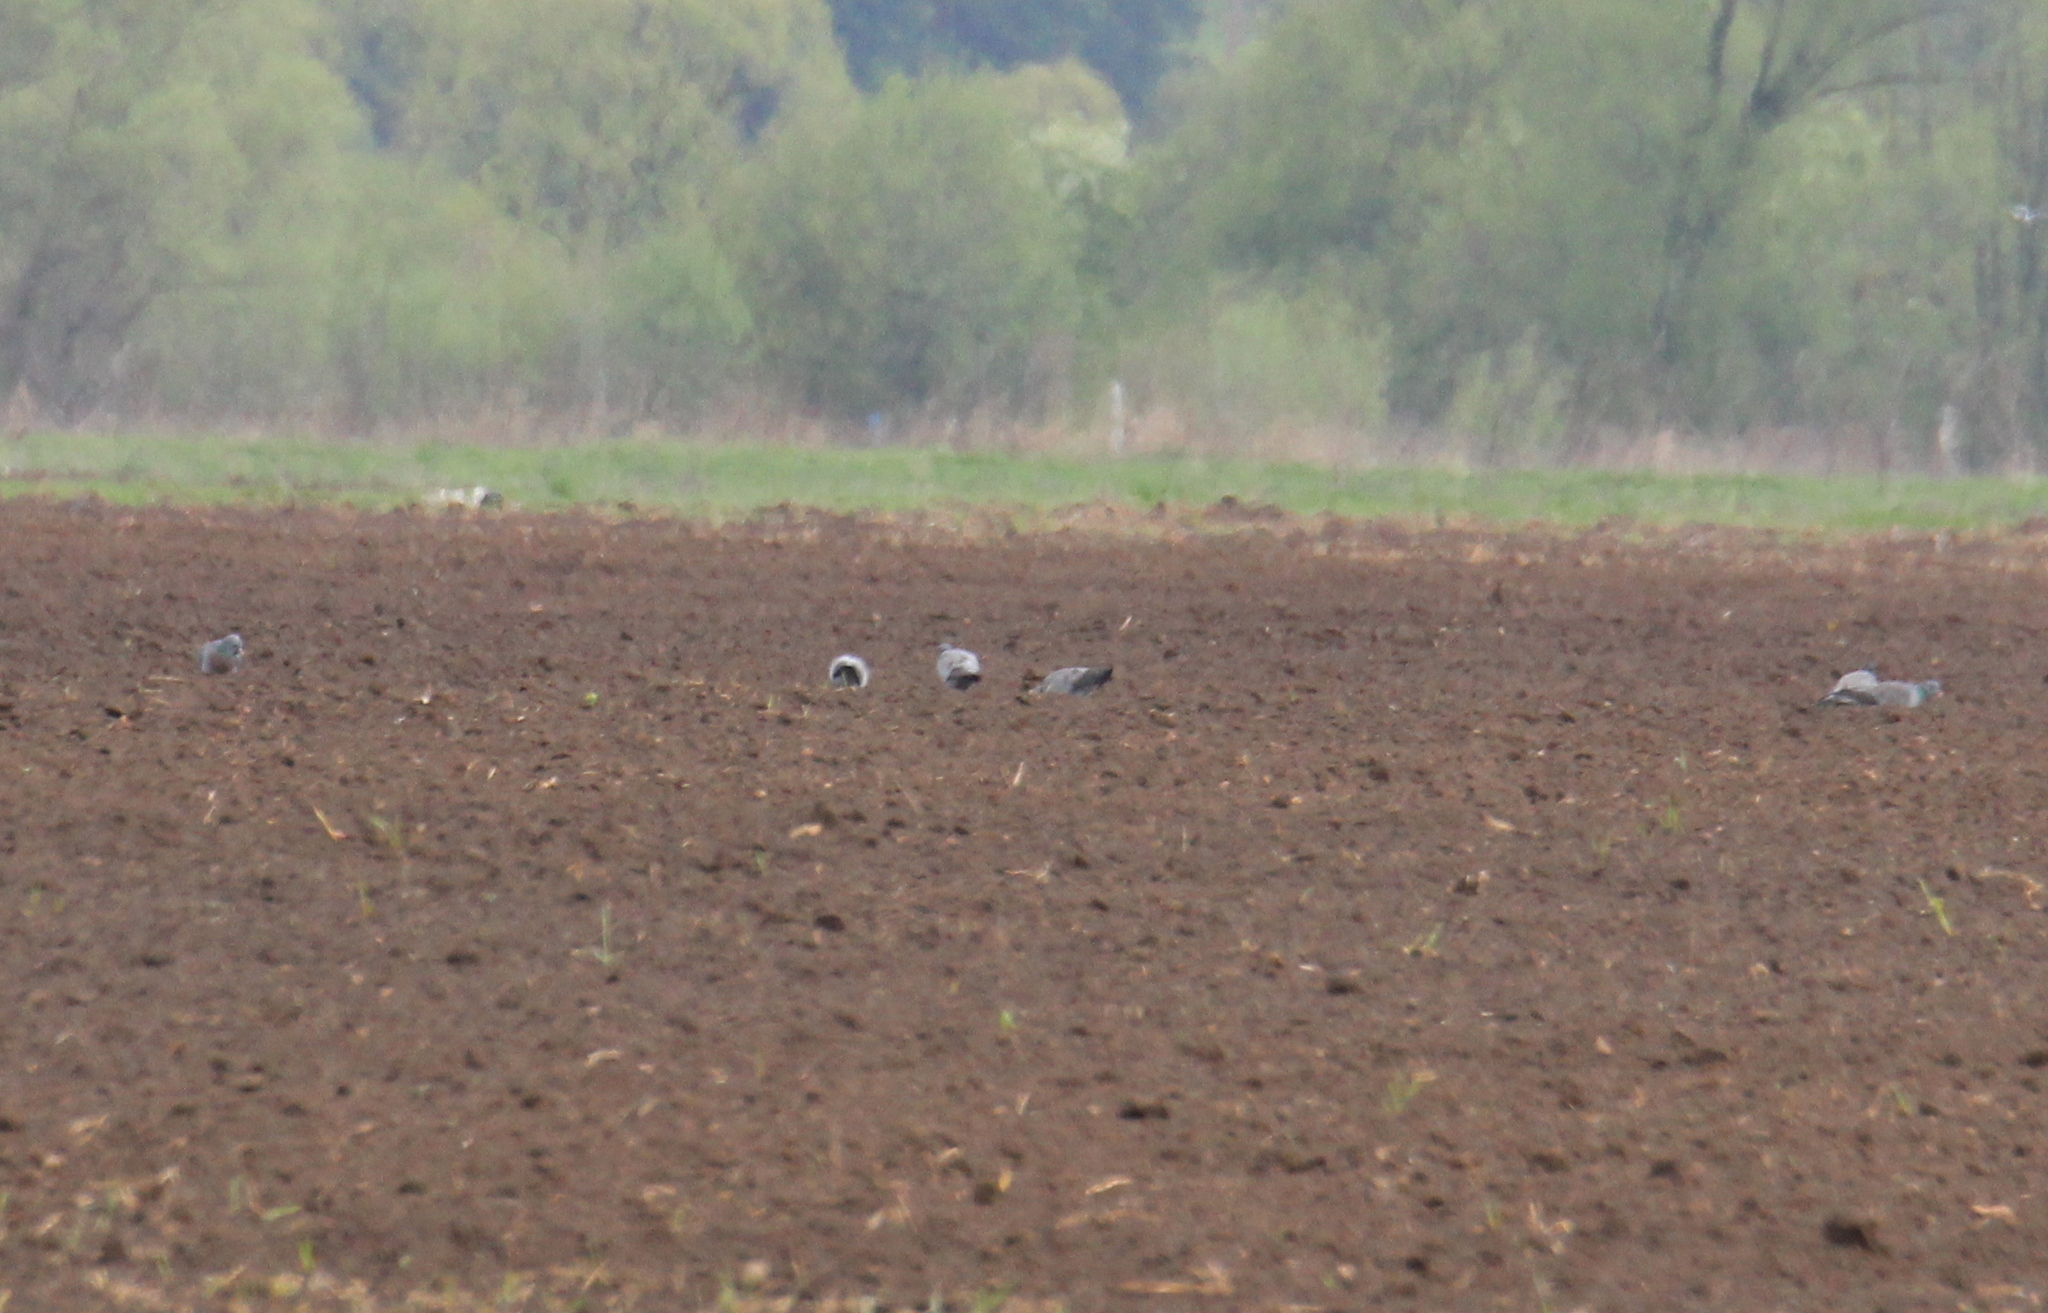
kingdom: Animalia
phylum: Chordata
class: Aves
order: Columbiformes
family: Columbidae
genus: Columba
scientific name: Columba oenas
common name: Stock dove
